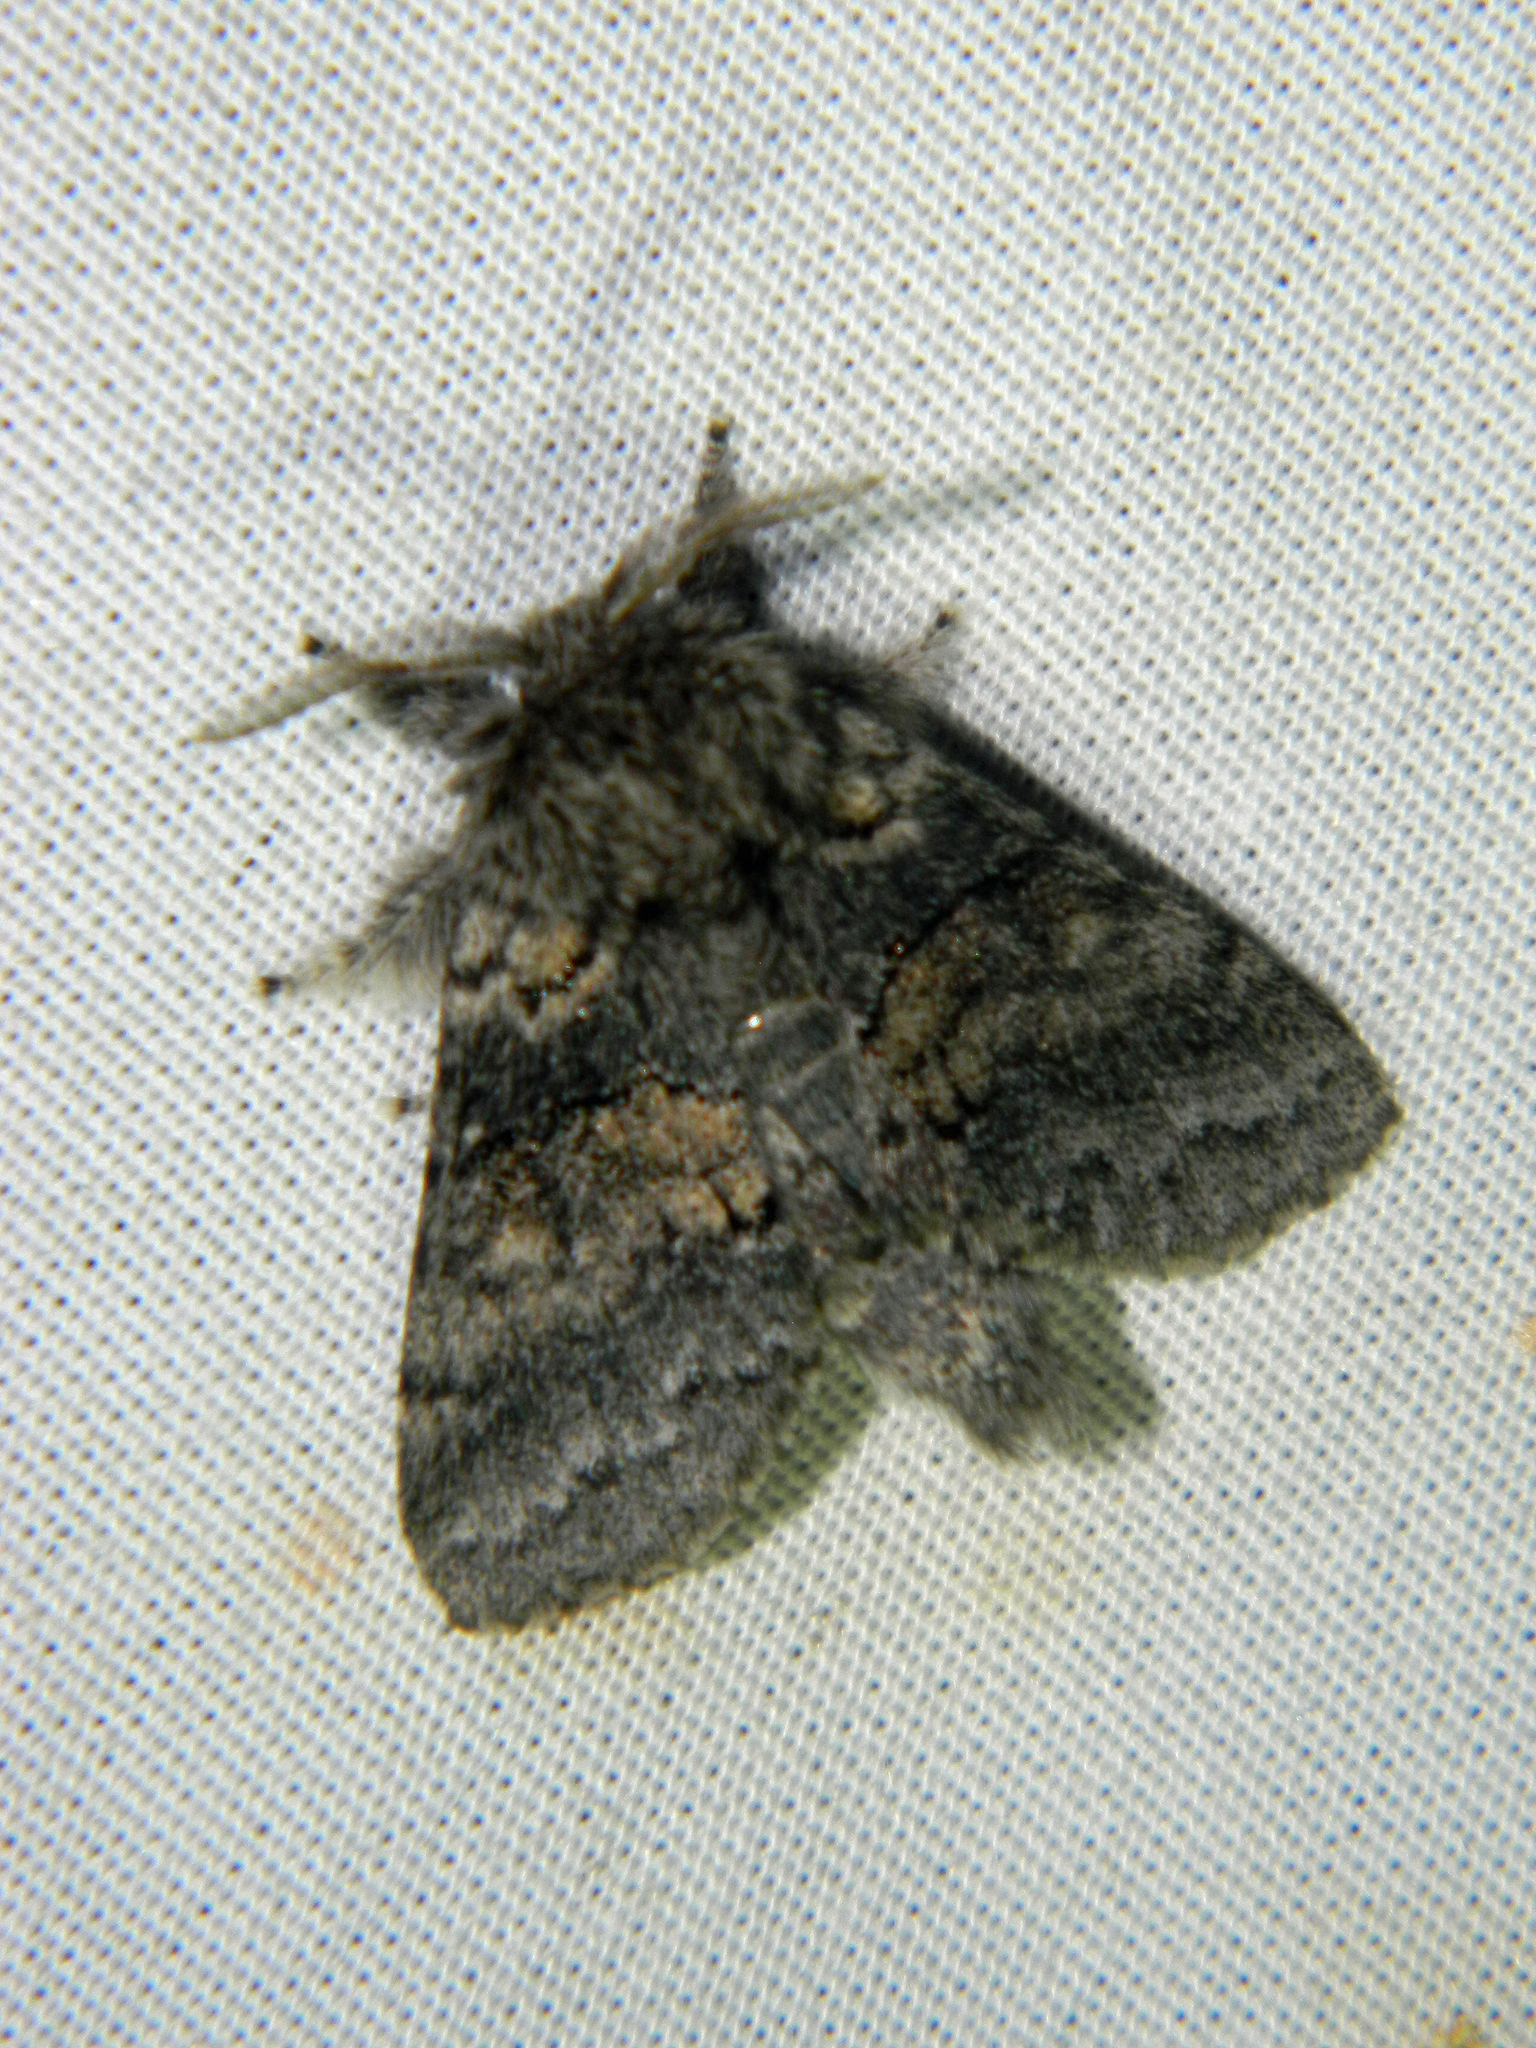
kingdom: Animalia
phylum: Arthropoda
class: Insecta
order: Lepidoptera
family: Notodontidae
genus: Gluphisia
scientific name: Gluphisia septentrionis
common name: Common gluphisia
